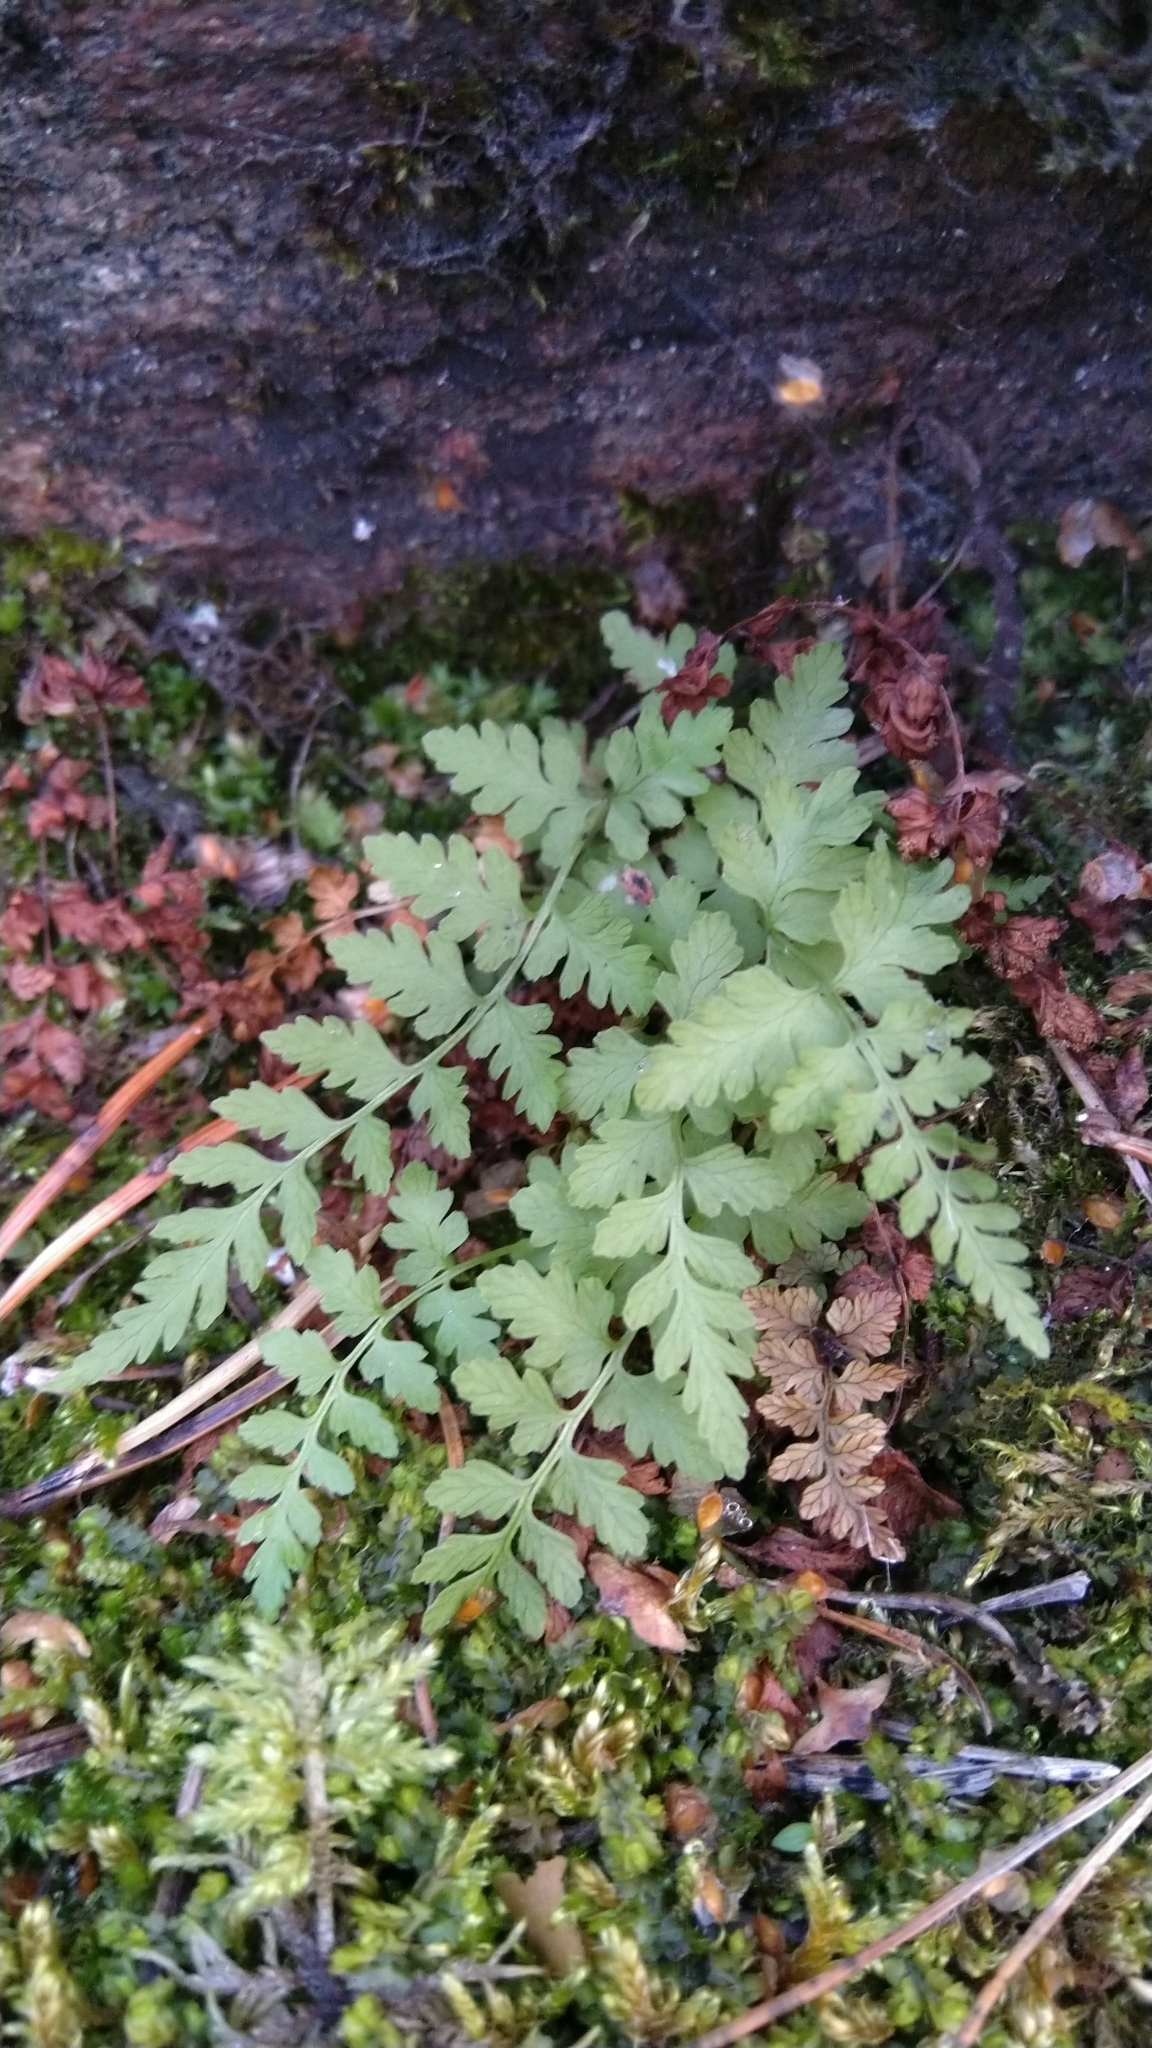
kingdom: Plantae
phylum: Tracheophyta
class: Polypodiopsida
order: Polypodiales
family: Cystopteridaceae
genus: Cystopteris
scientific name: Cystopteris fragilis
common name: Brittle bladder fern
